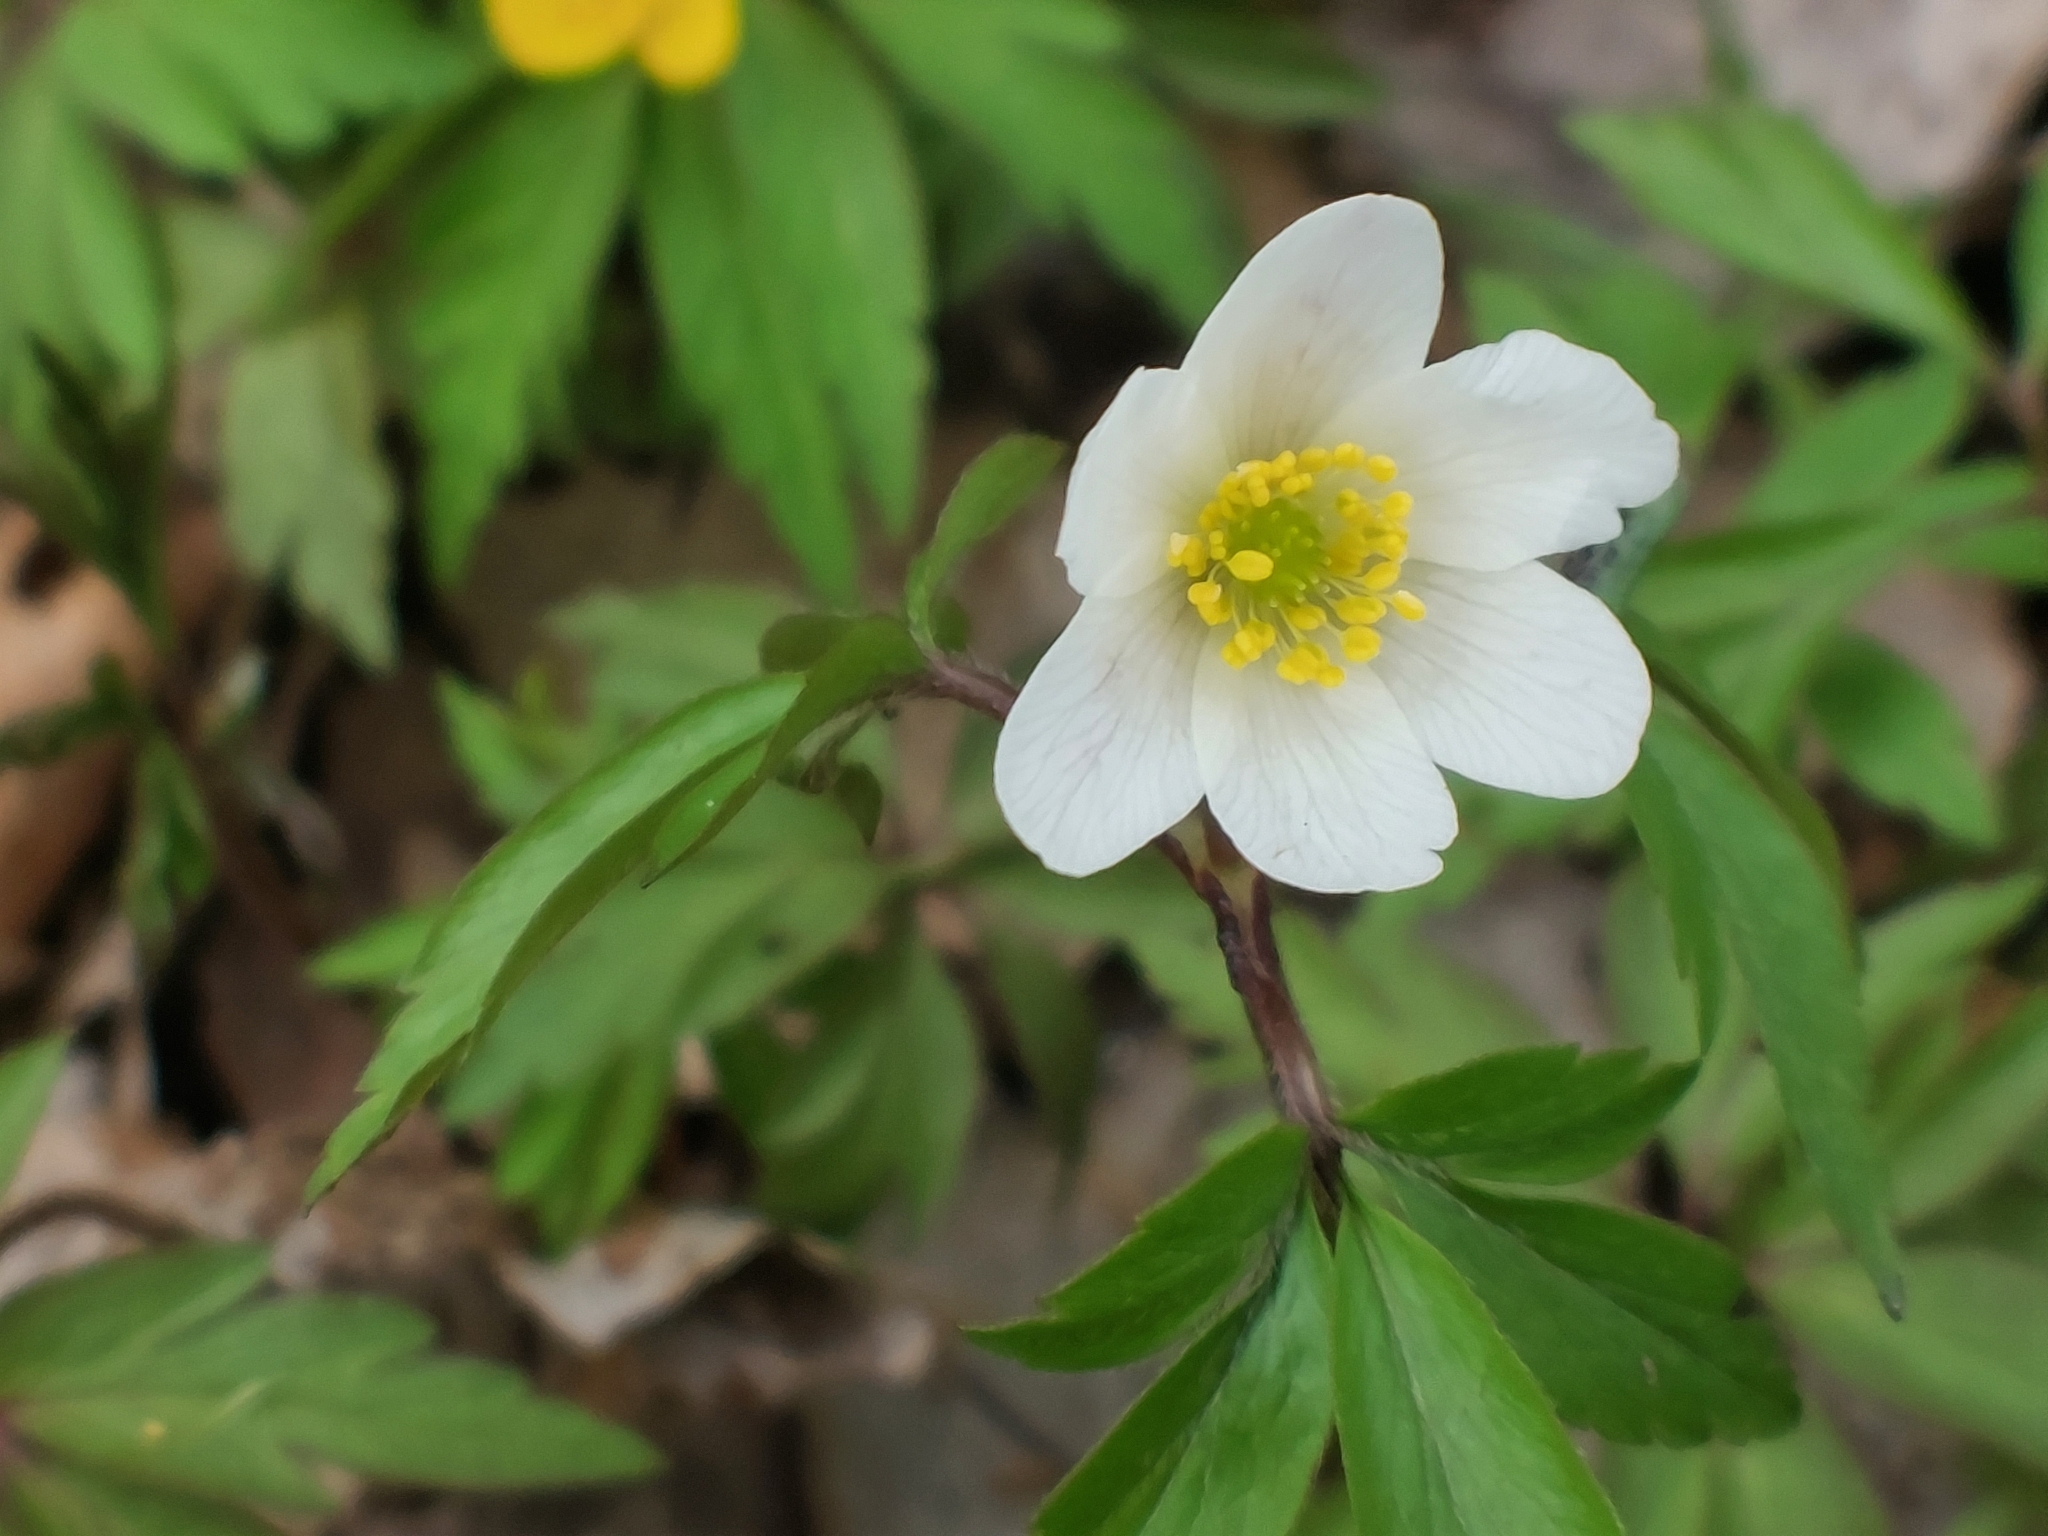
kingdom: Plantae
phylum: Tracheophyta
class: Magnoliopsida
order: Ranunculales
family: Ranunculaceae
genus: Anemone
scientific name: Anemone nemorosa
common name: Wood anemone
